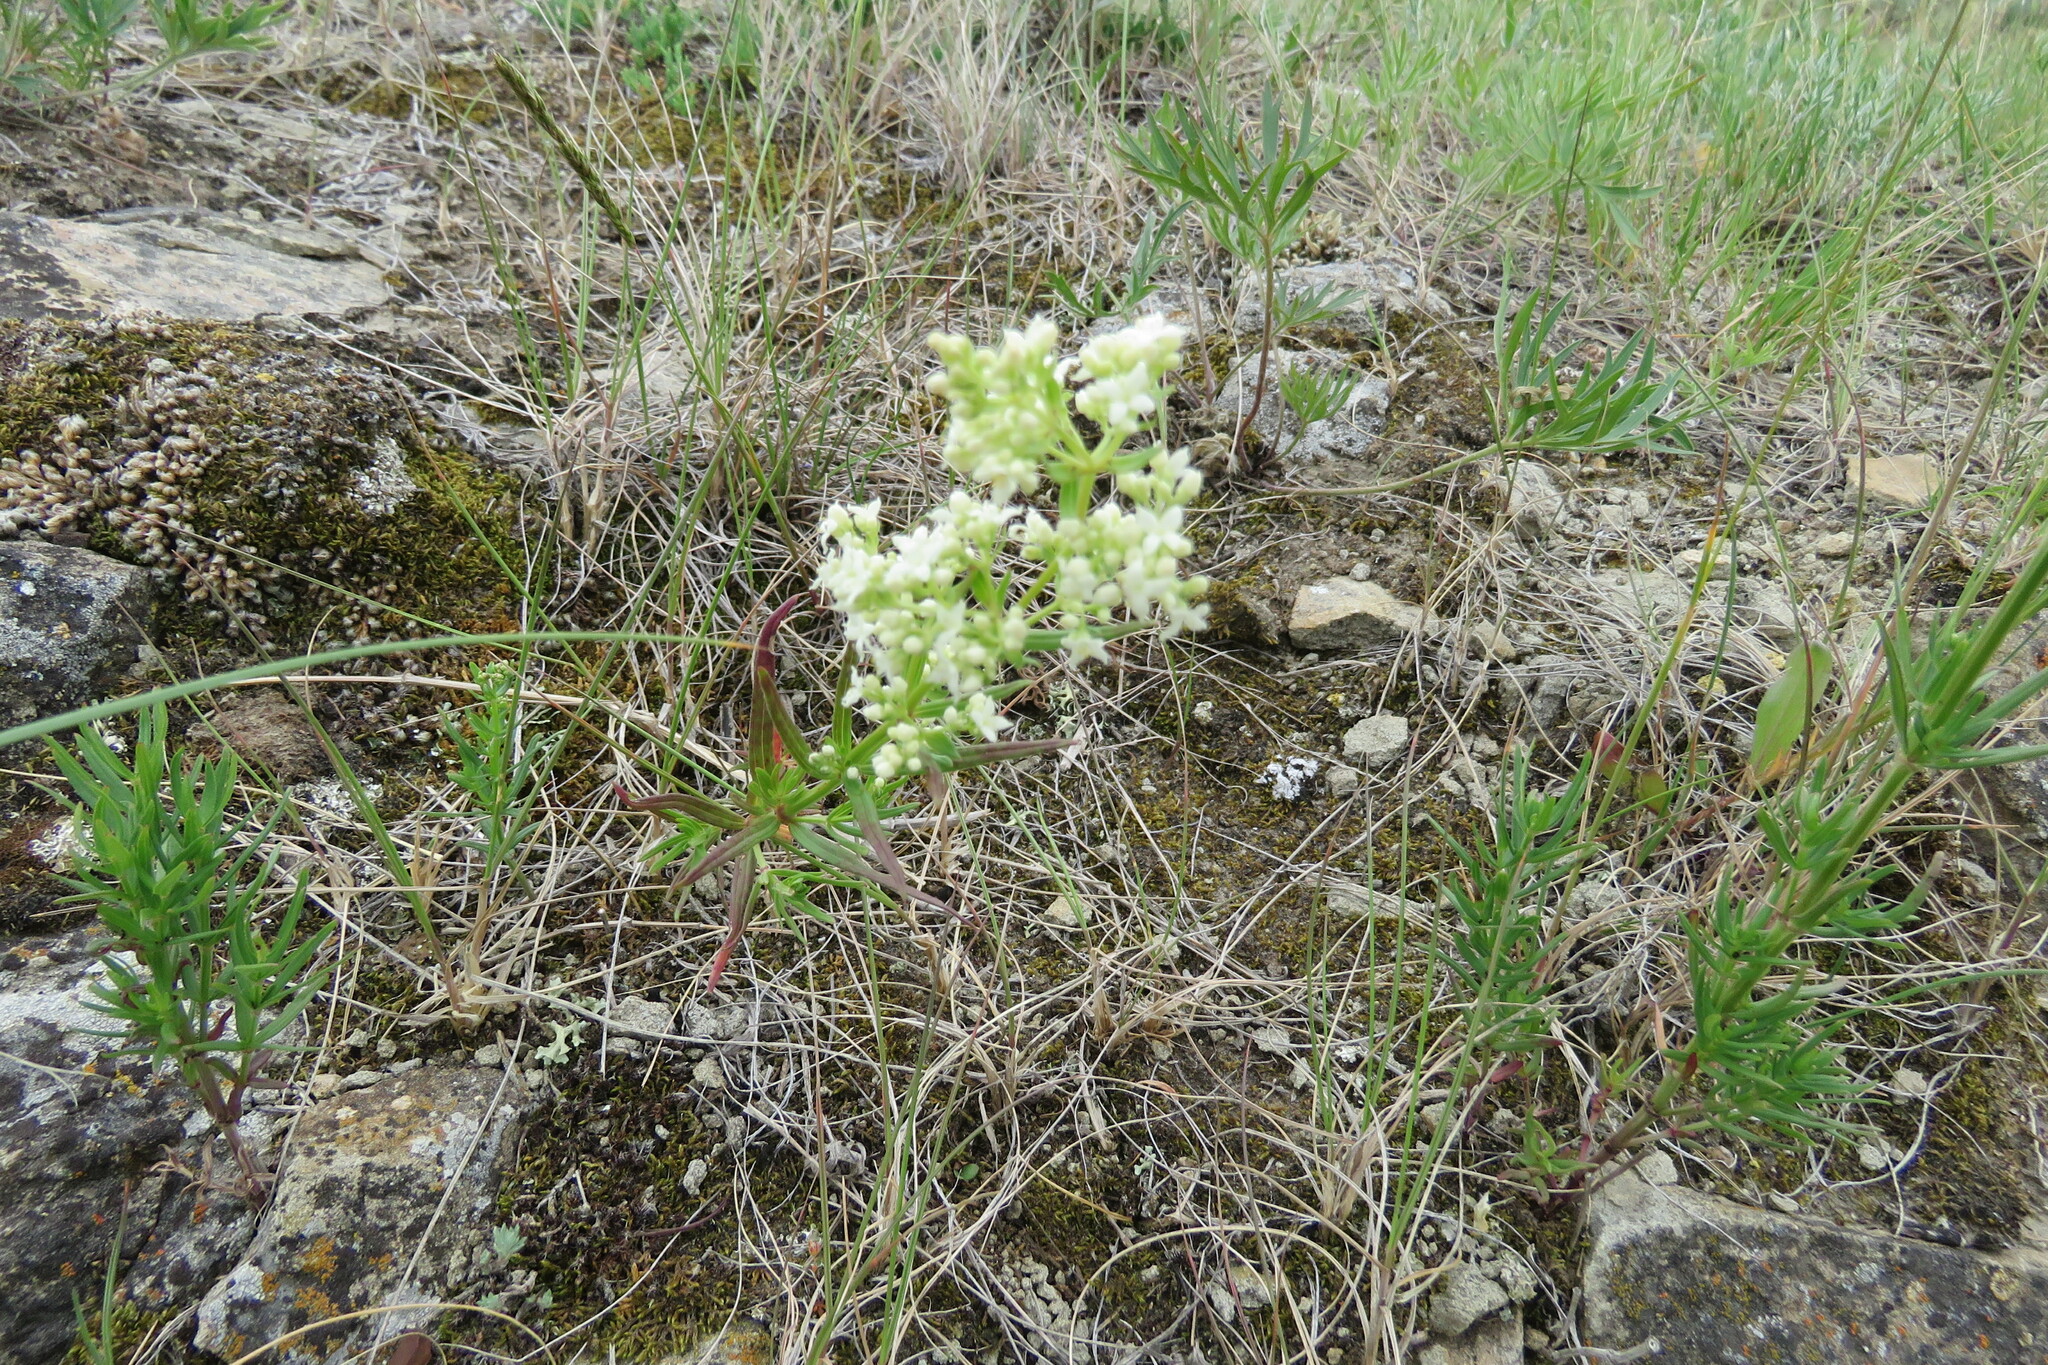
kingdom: Plantae
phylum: Tracheophyta
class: Magnoliopsida
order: Gentianales
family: Rubiaceae
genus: Galium
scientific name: Galium boreale
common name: Northern bedstraw
